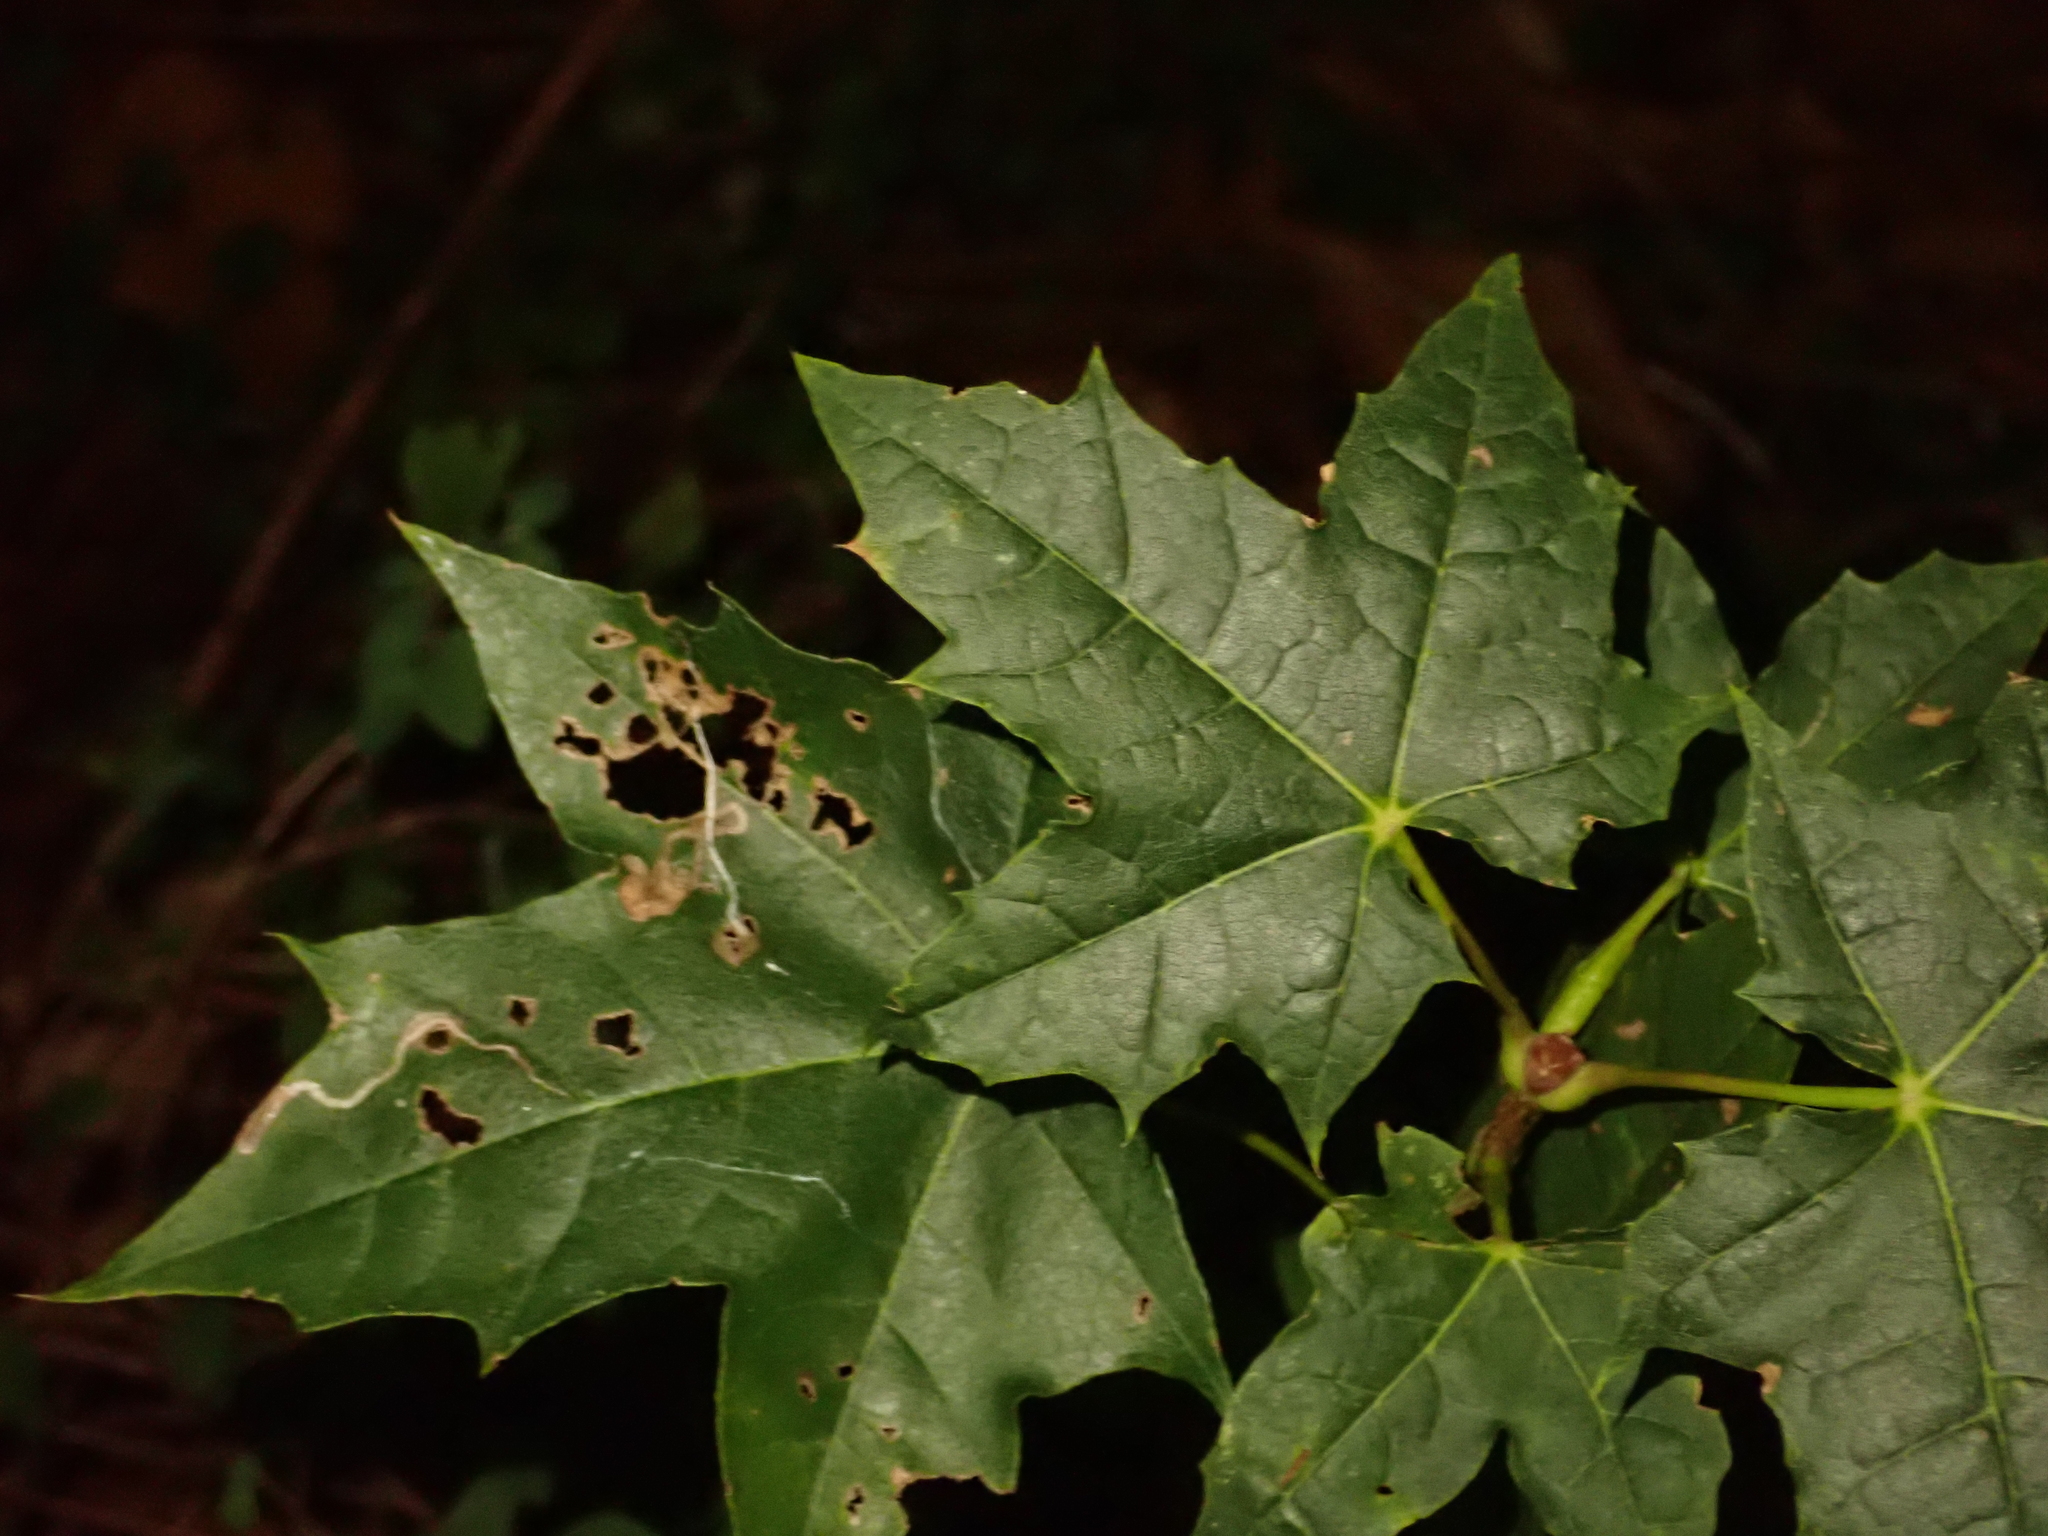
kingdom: Plantae
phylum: Tracheophyta
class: Magnoliopsida
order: Sapindales
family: Sapindaceae
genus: Acer
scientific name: Acer platanoides
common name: Norway maple
